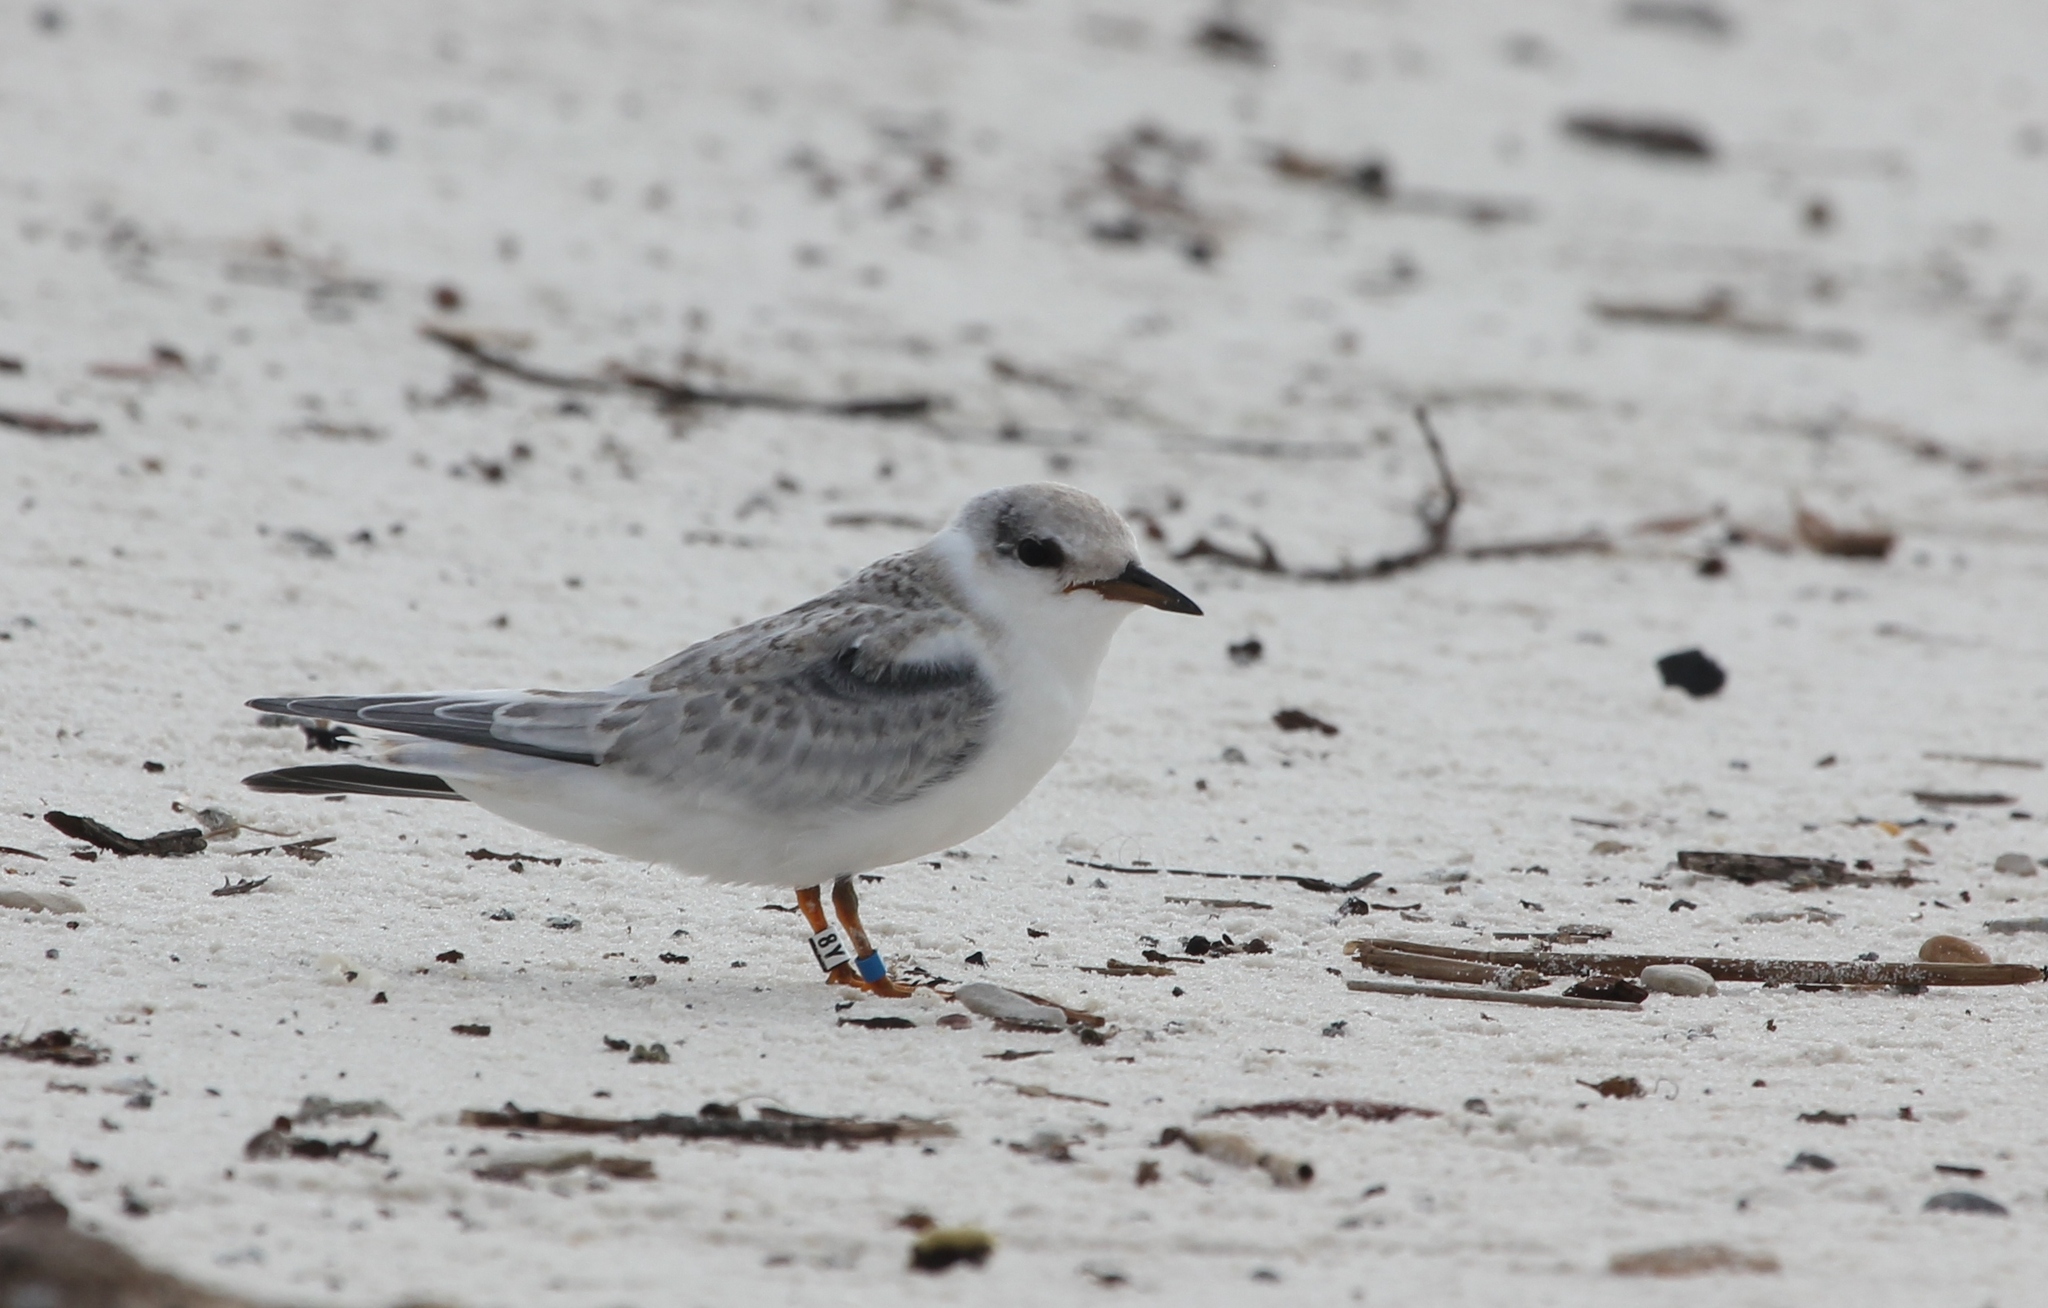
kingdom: Animalia
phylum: Chordata
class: Aves
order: Charadriiformes
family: Laridae
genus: Sternula
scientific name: Sternula antillarum
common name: Least tern
